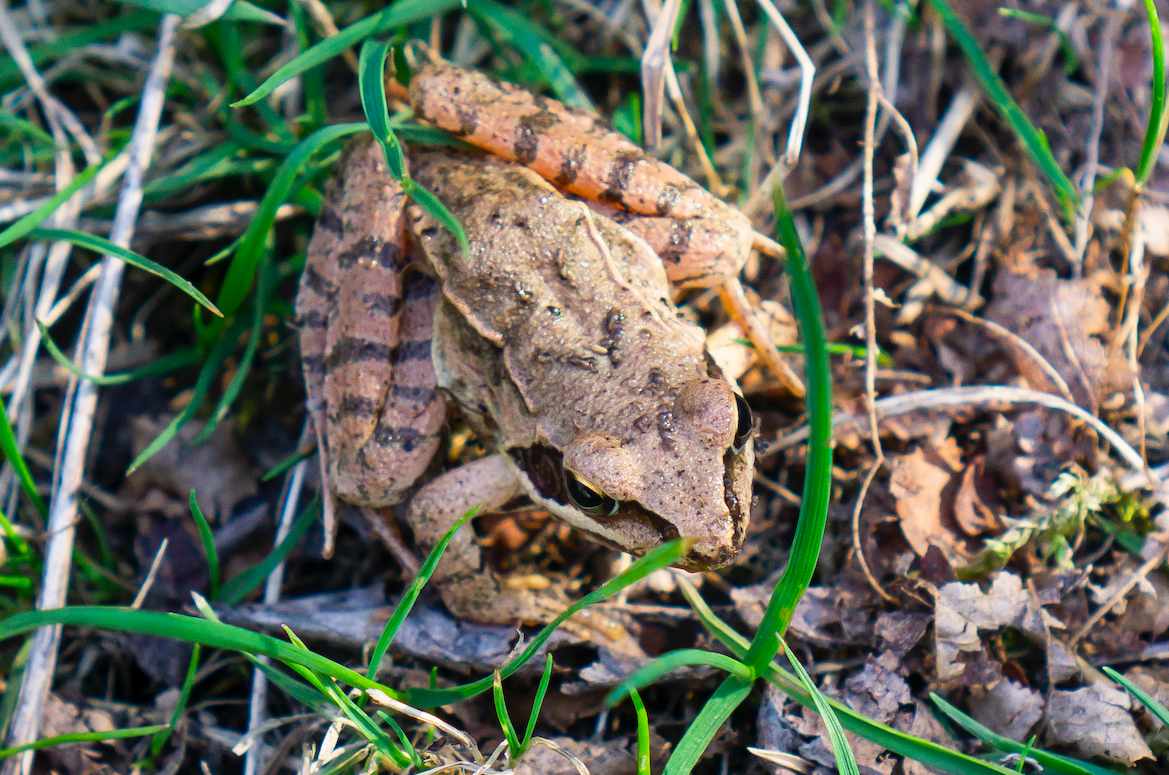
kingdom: Animalia
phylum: Chordata
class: Amphibia
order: Anura
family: Ranidae
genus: Rana
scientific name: Rana dalmatina
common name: Agile frog
